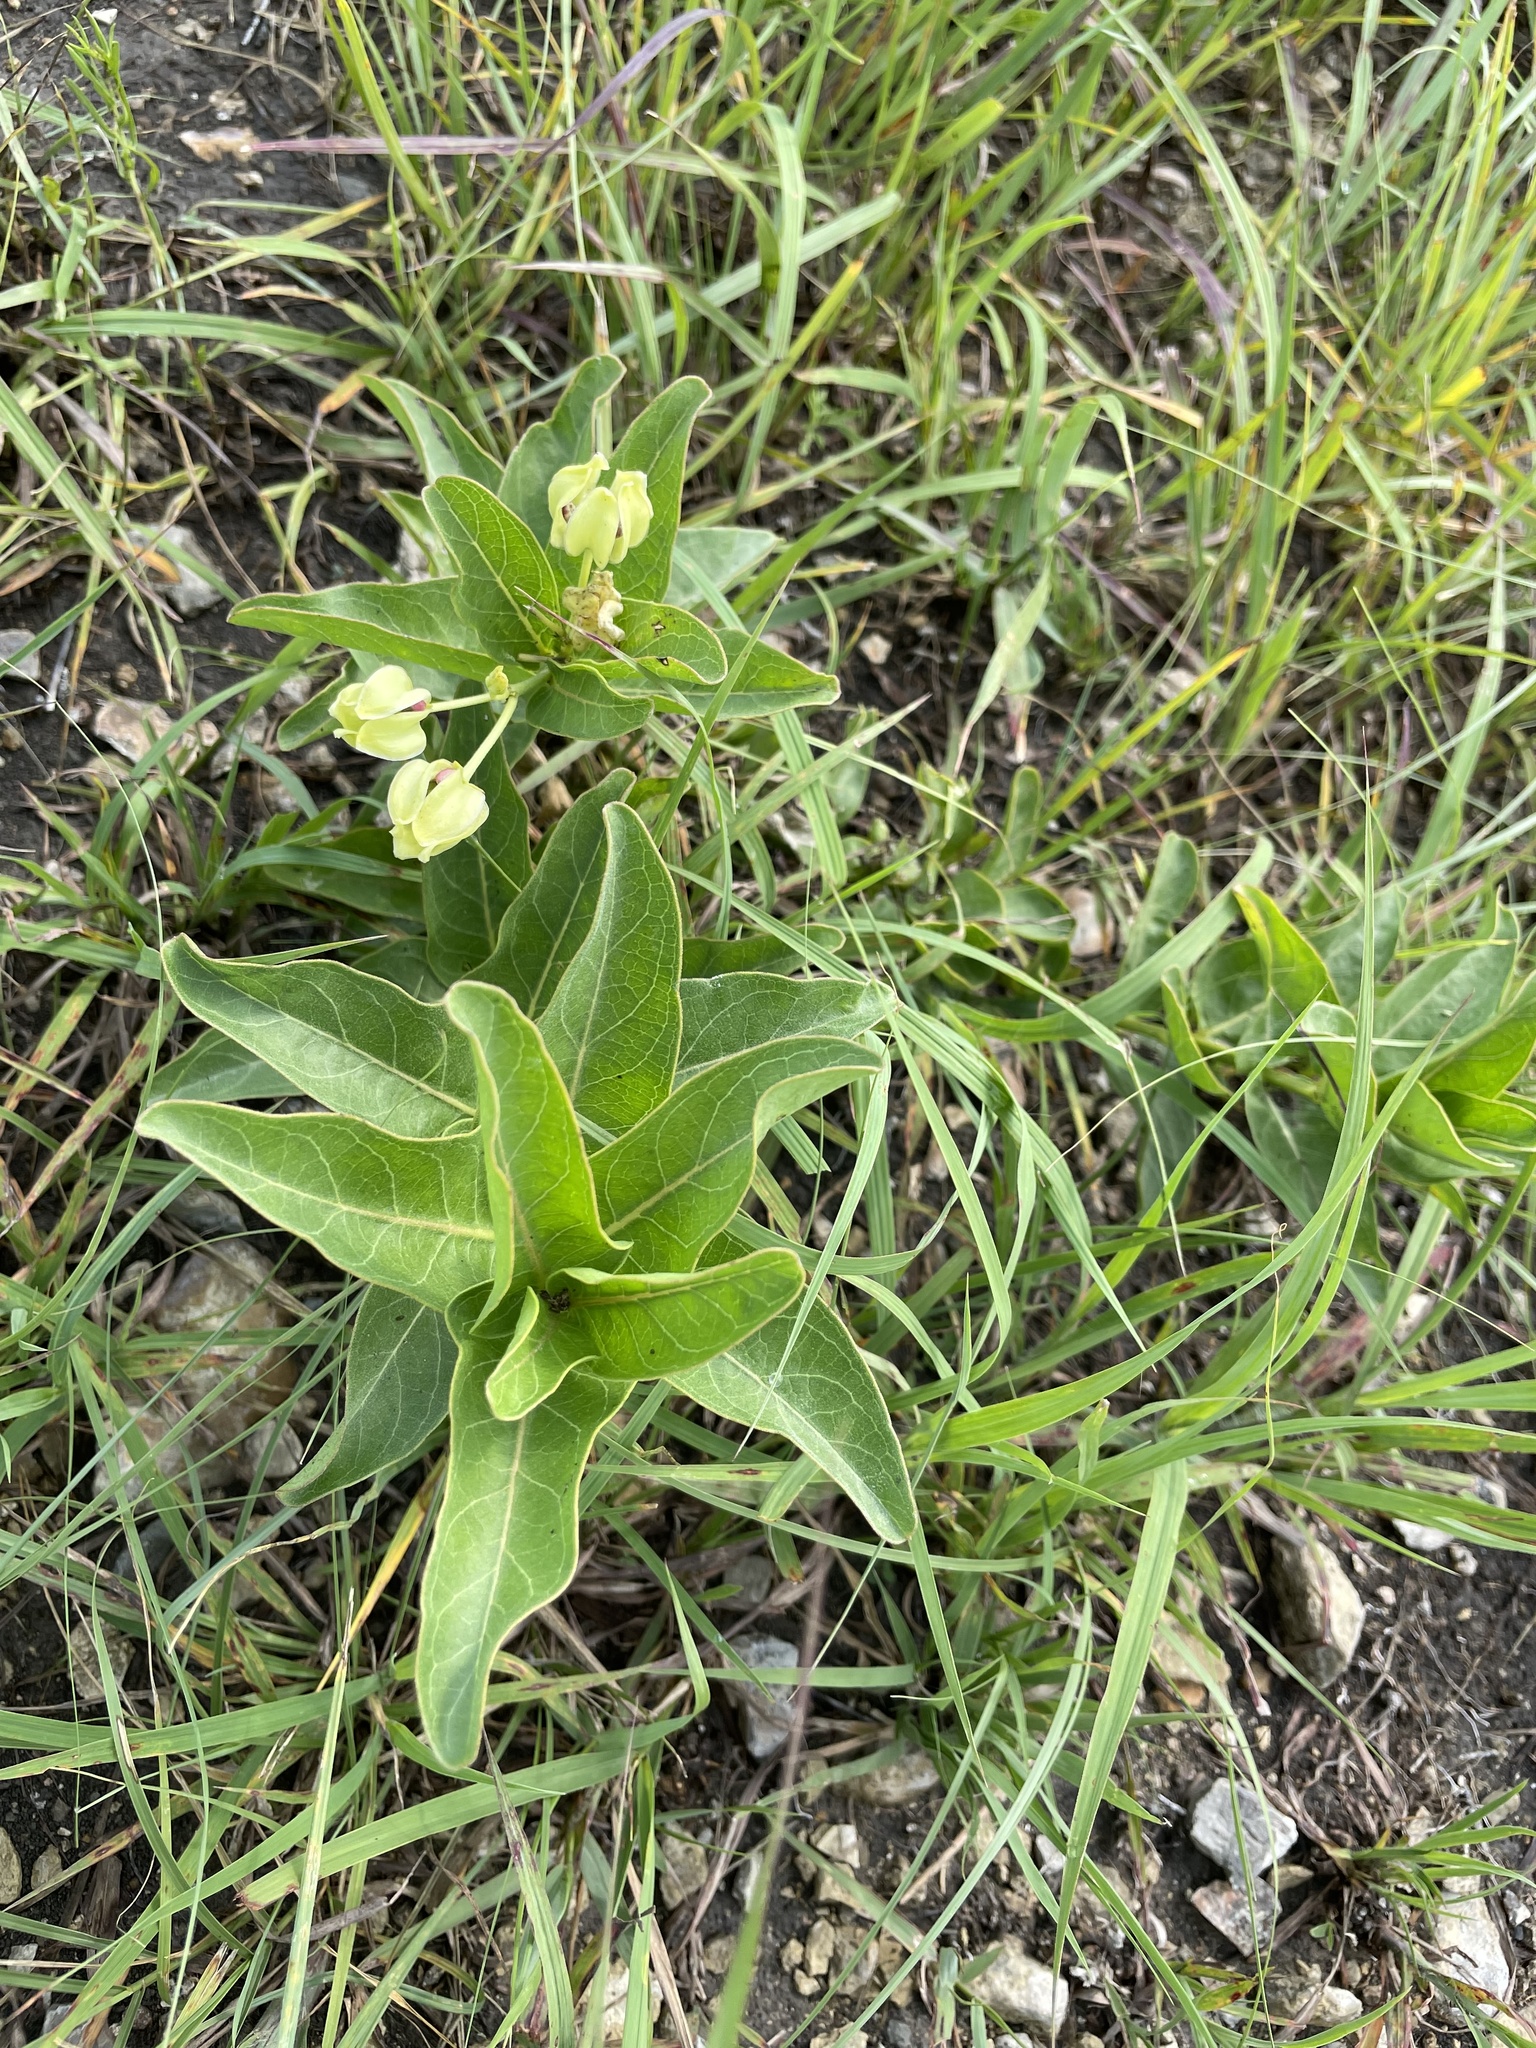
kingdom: Plantae
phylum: Tracheophyta
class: Magnoliopsida
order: Gentianales
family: Apocynaceae
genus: Asclepias
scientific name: Asclepias viridis
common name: Antelope-horns
